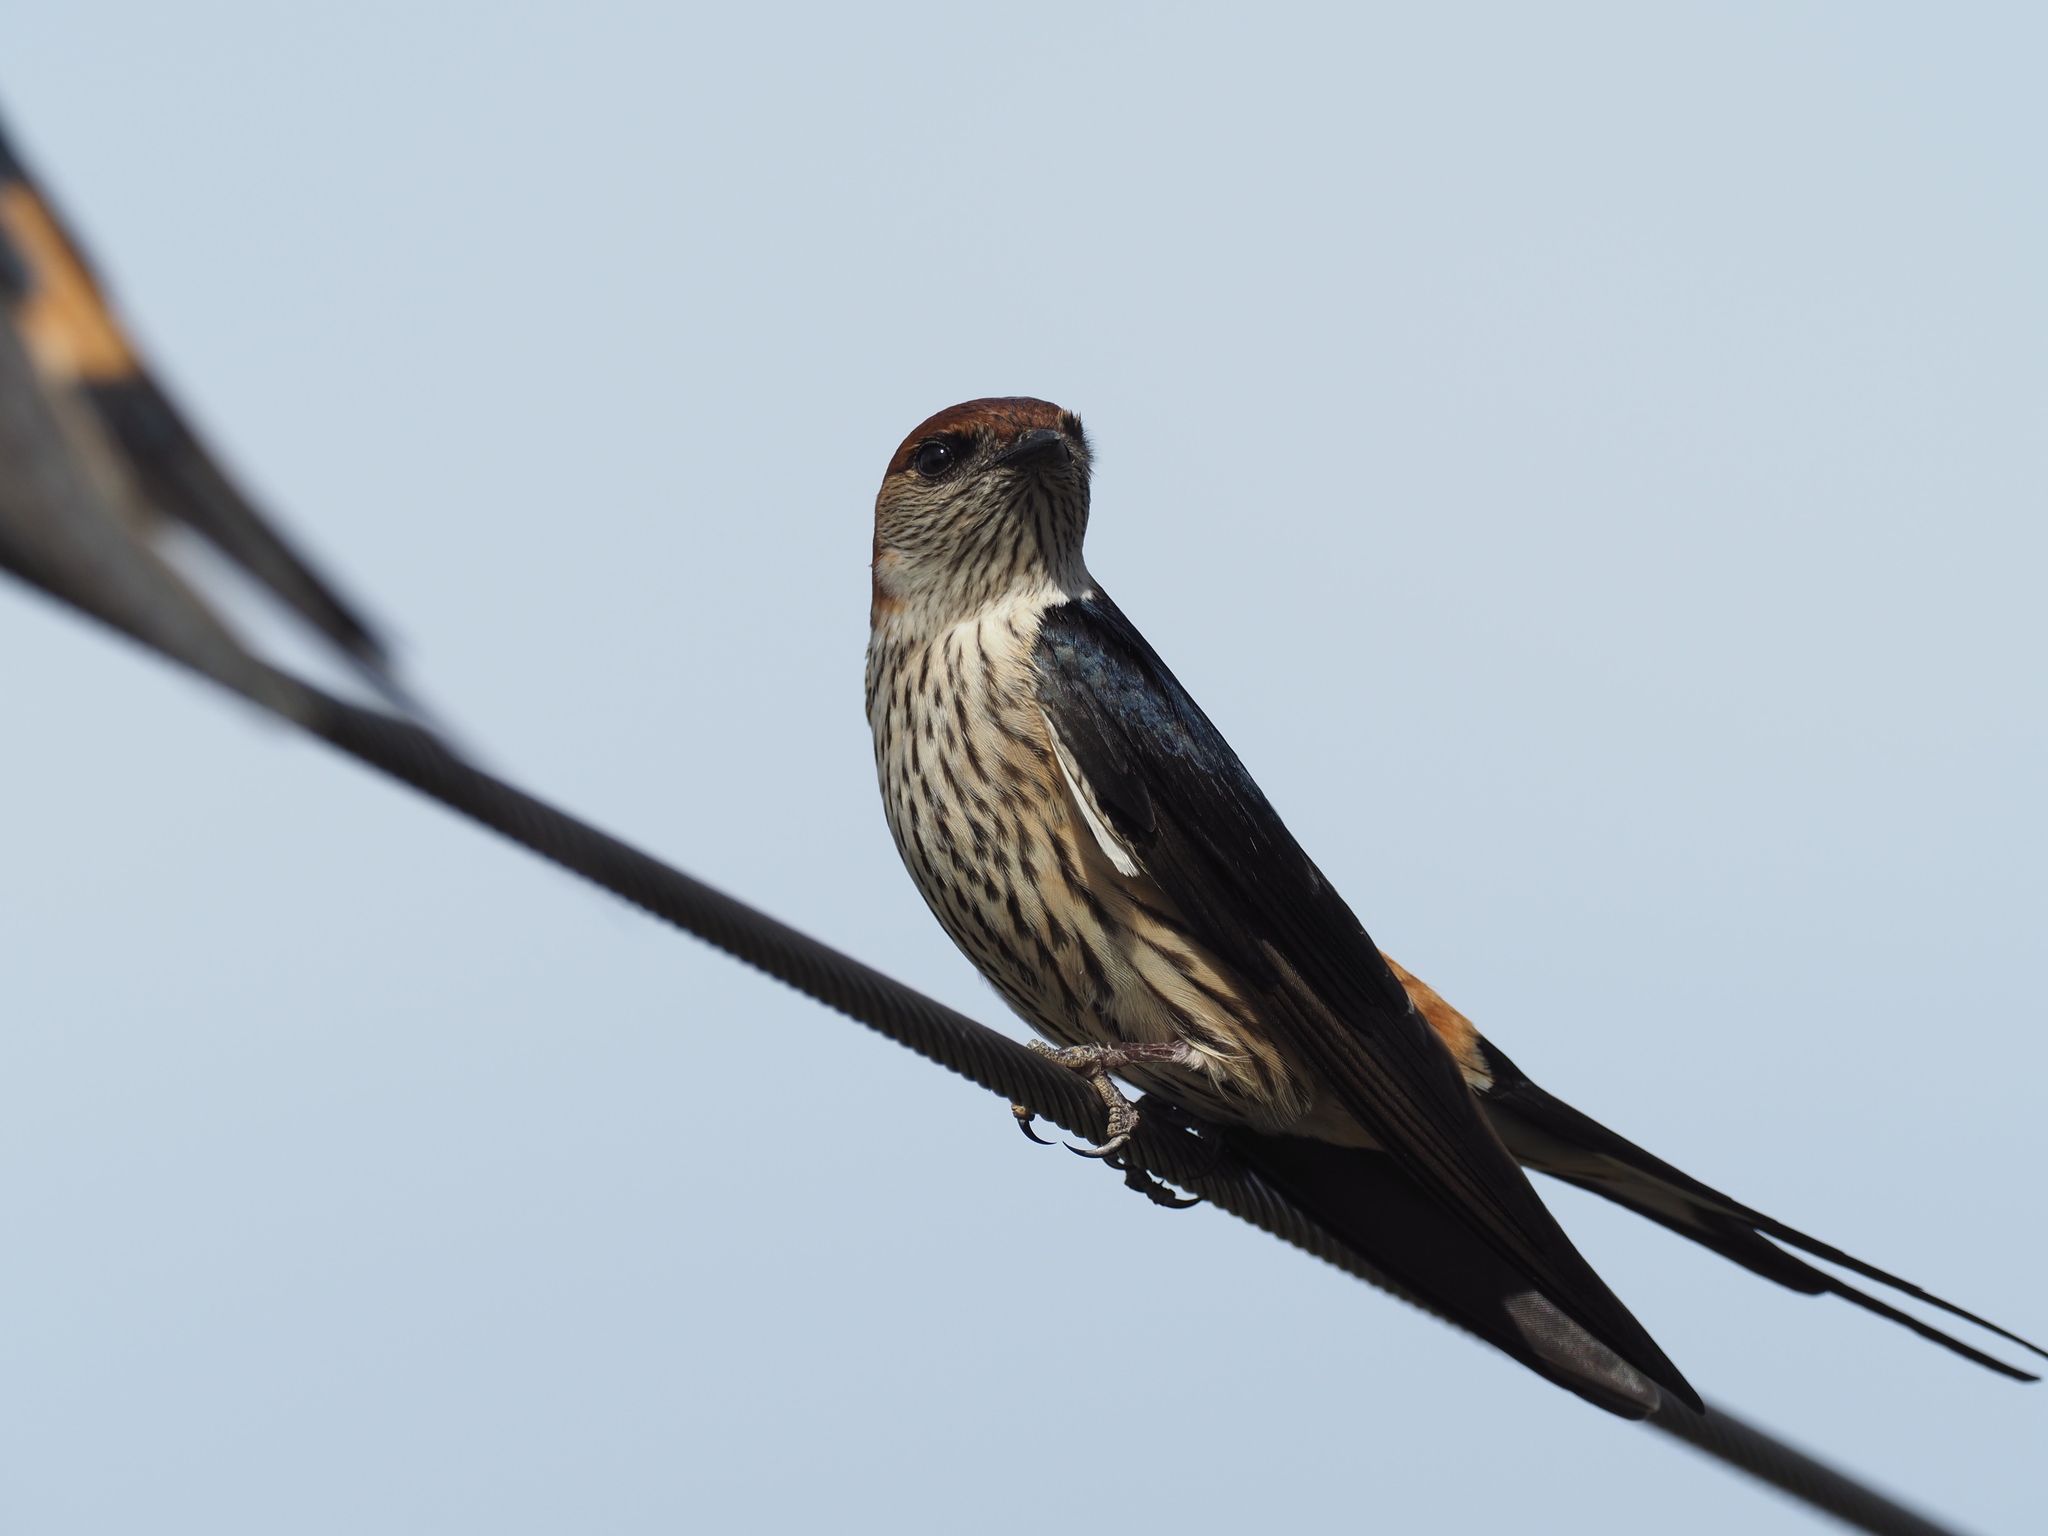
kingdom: Animalia
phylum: Chordata
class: Aves
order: Passeriformes
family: Hirundinidae
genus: Cecropis
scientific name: Cecropis cucullata
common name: Greater striped-swallow
